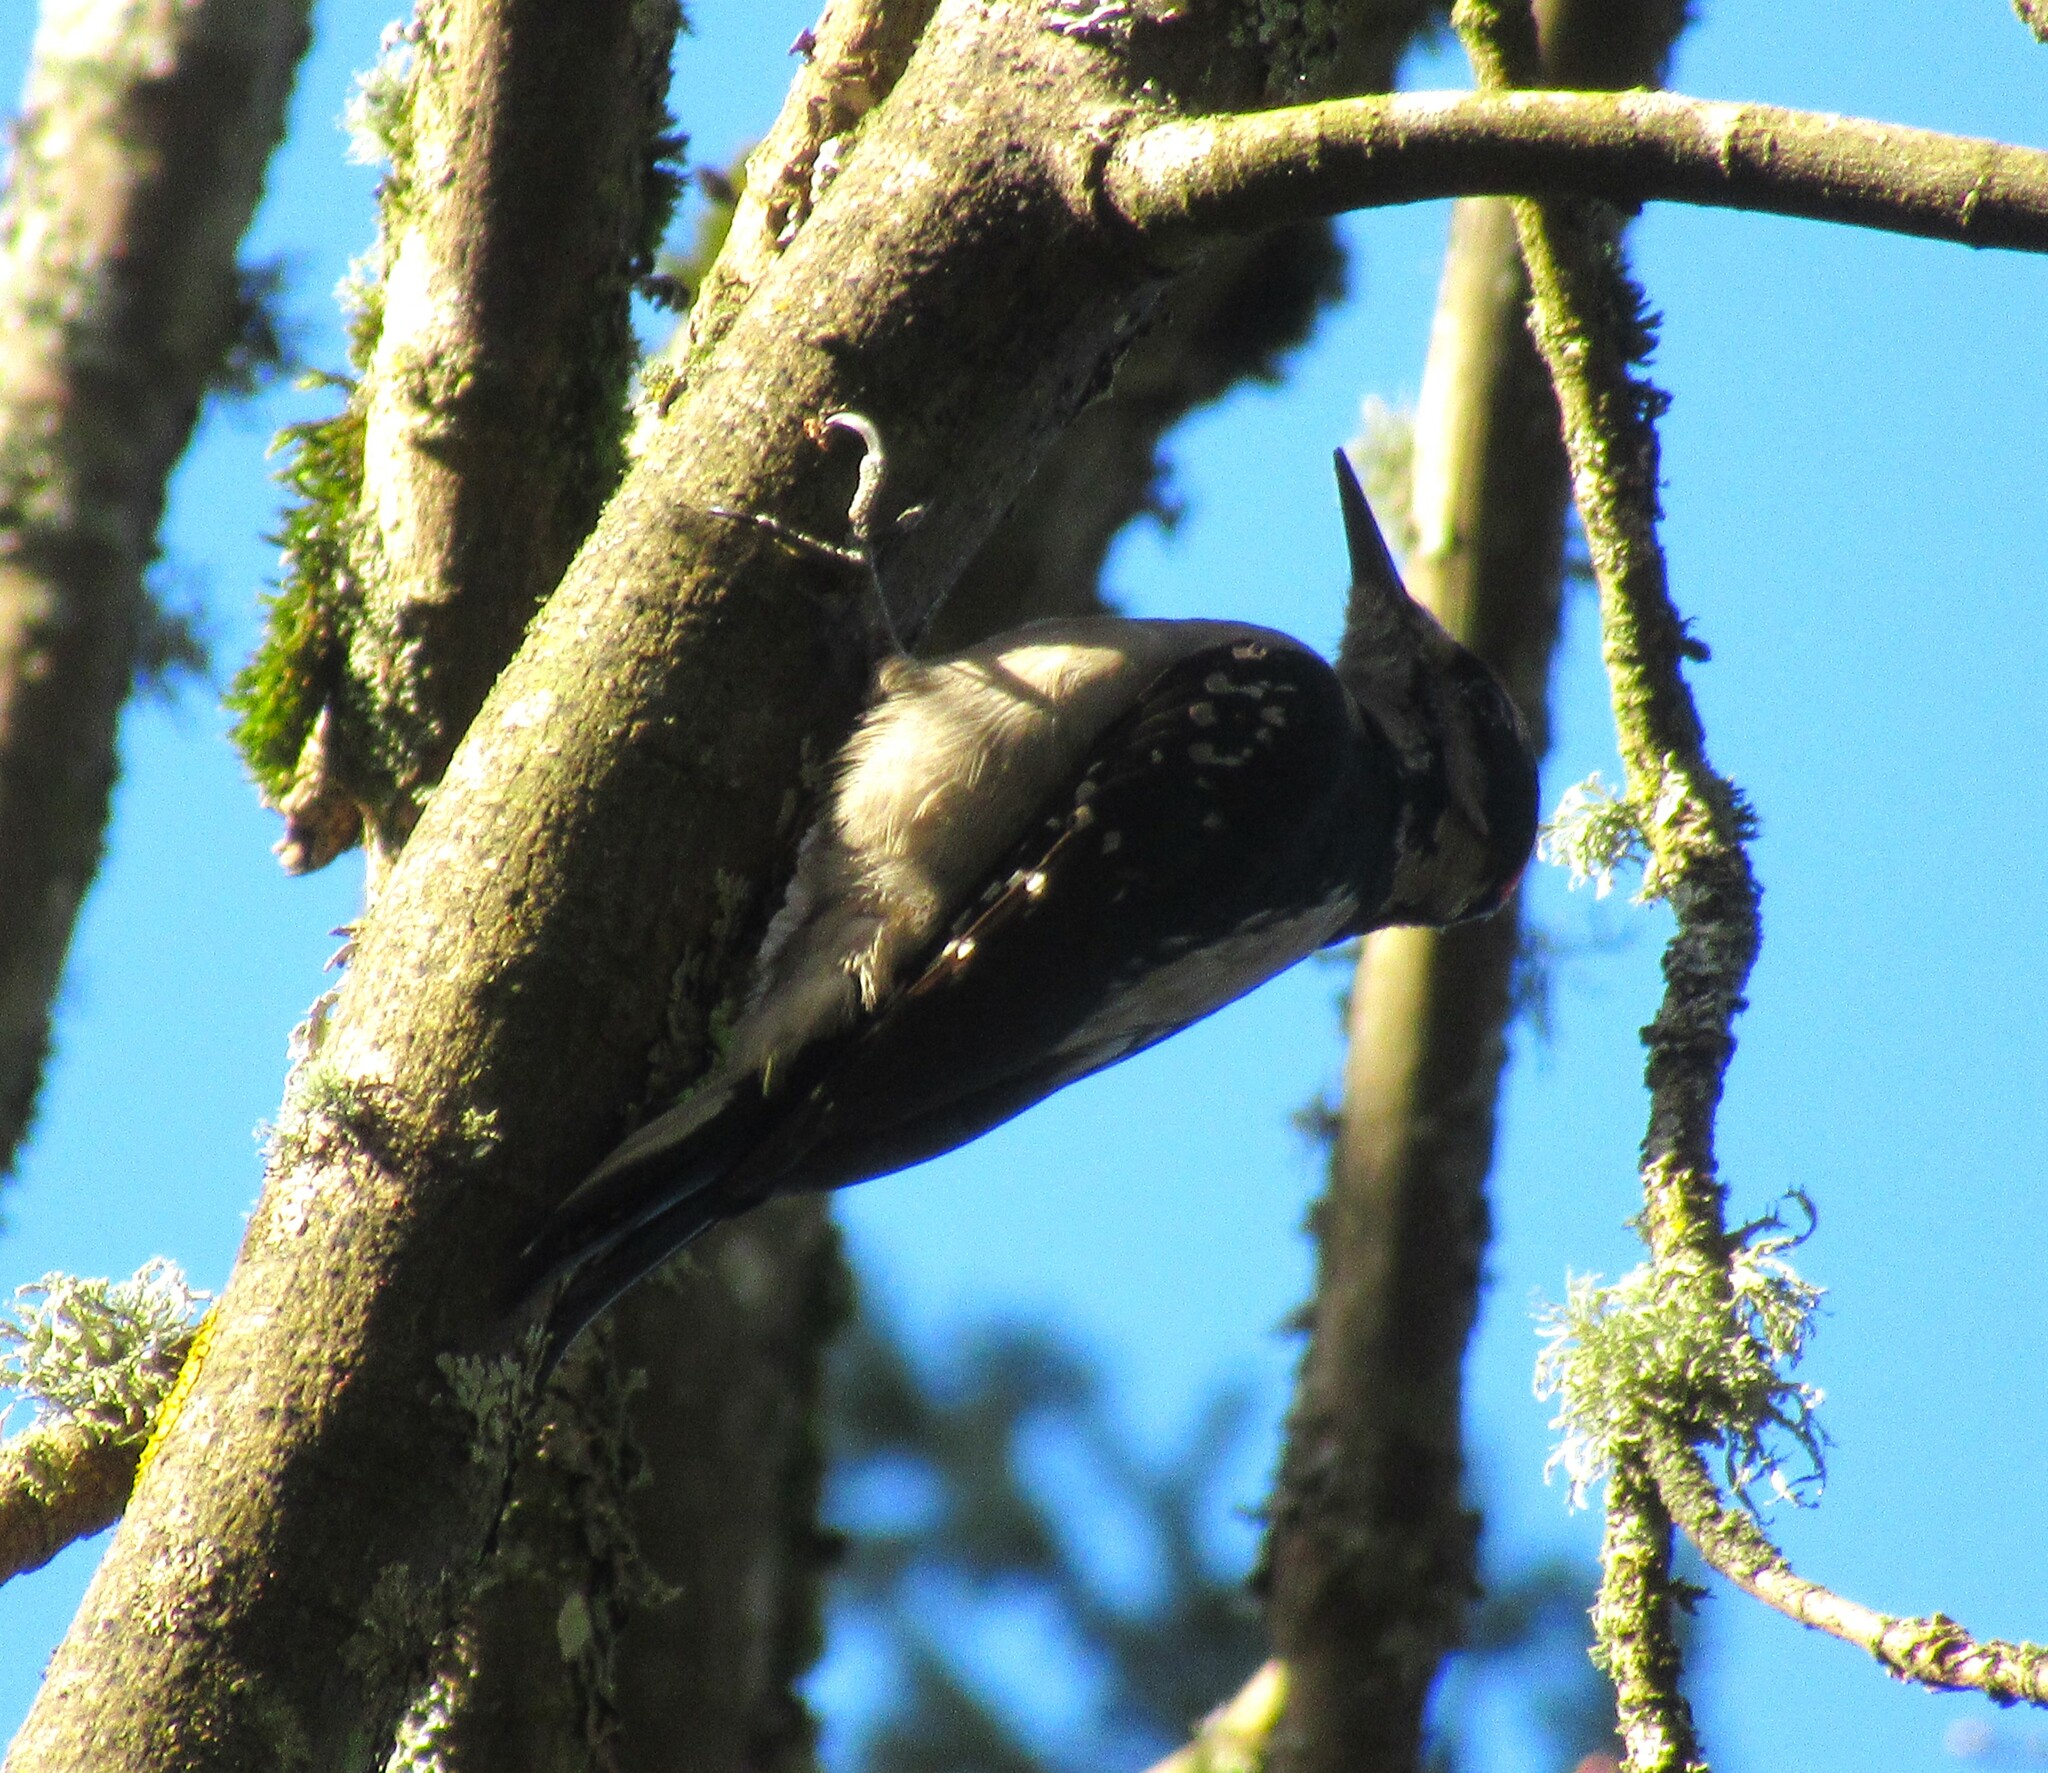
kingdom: Animalia
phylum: Chordata
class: Aves
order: Piciformes
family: Picidae
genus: Leuconotopicus
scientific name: Leuconotopicus villosus
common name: Hairy woodpecker
